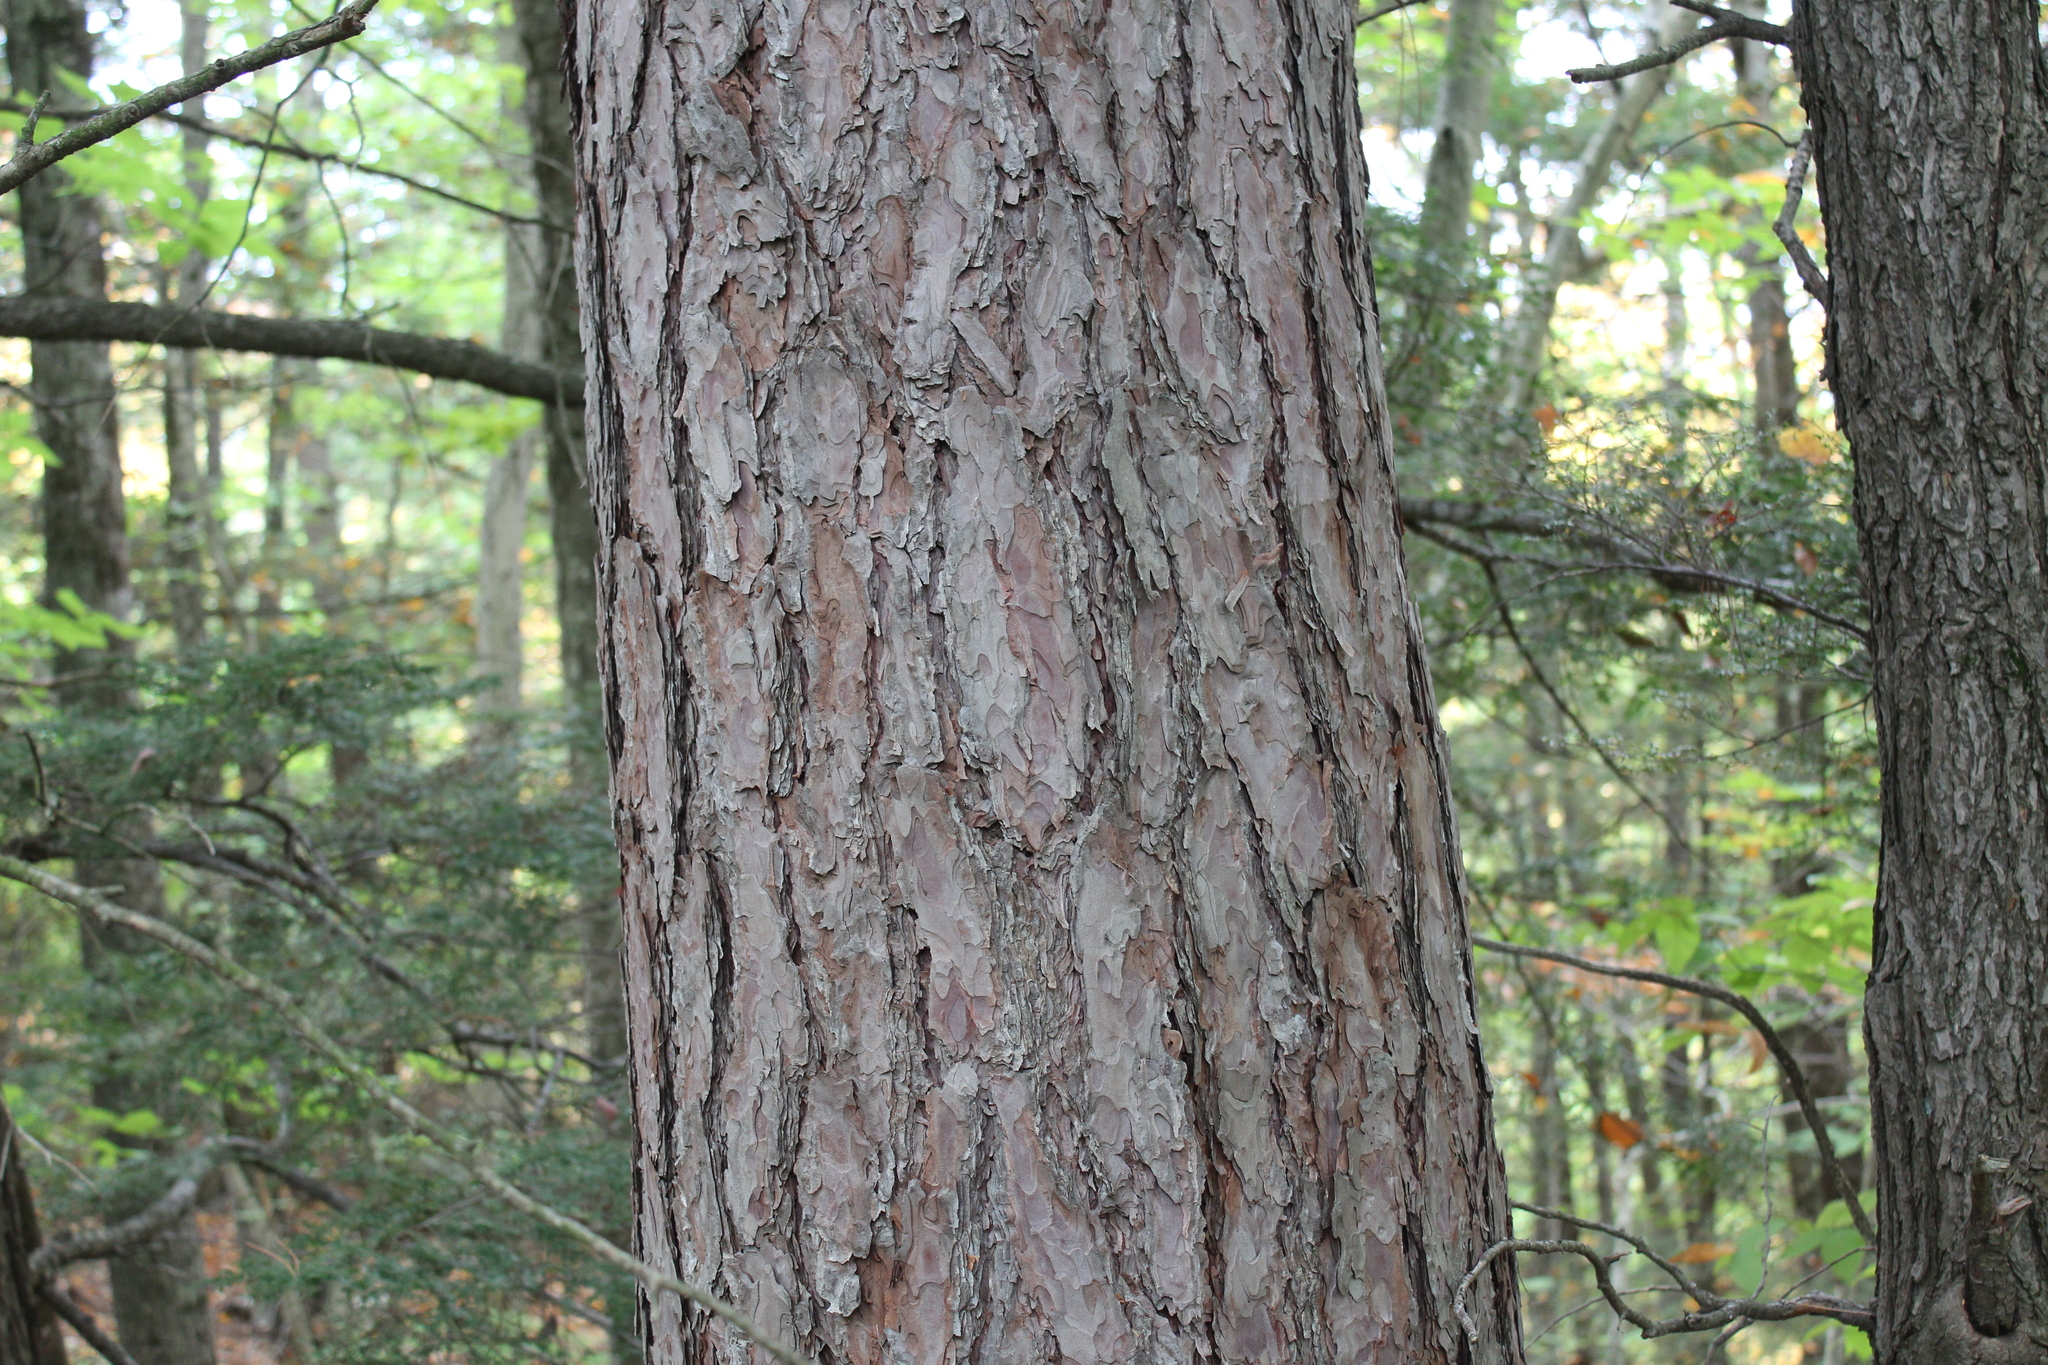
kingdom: Plantae
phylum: Tracheophyta
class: Pinopsida
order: Pinales
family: Pinaceae
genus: Pinus
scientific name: Pinus resinosa
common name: Norway pine
